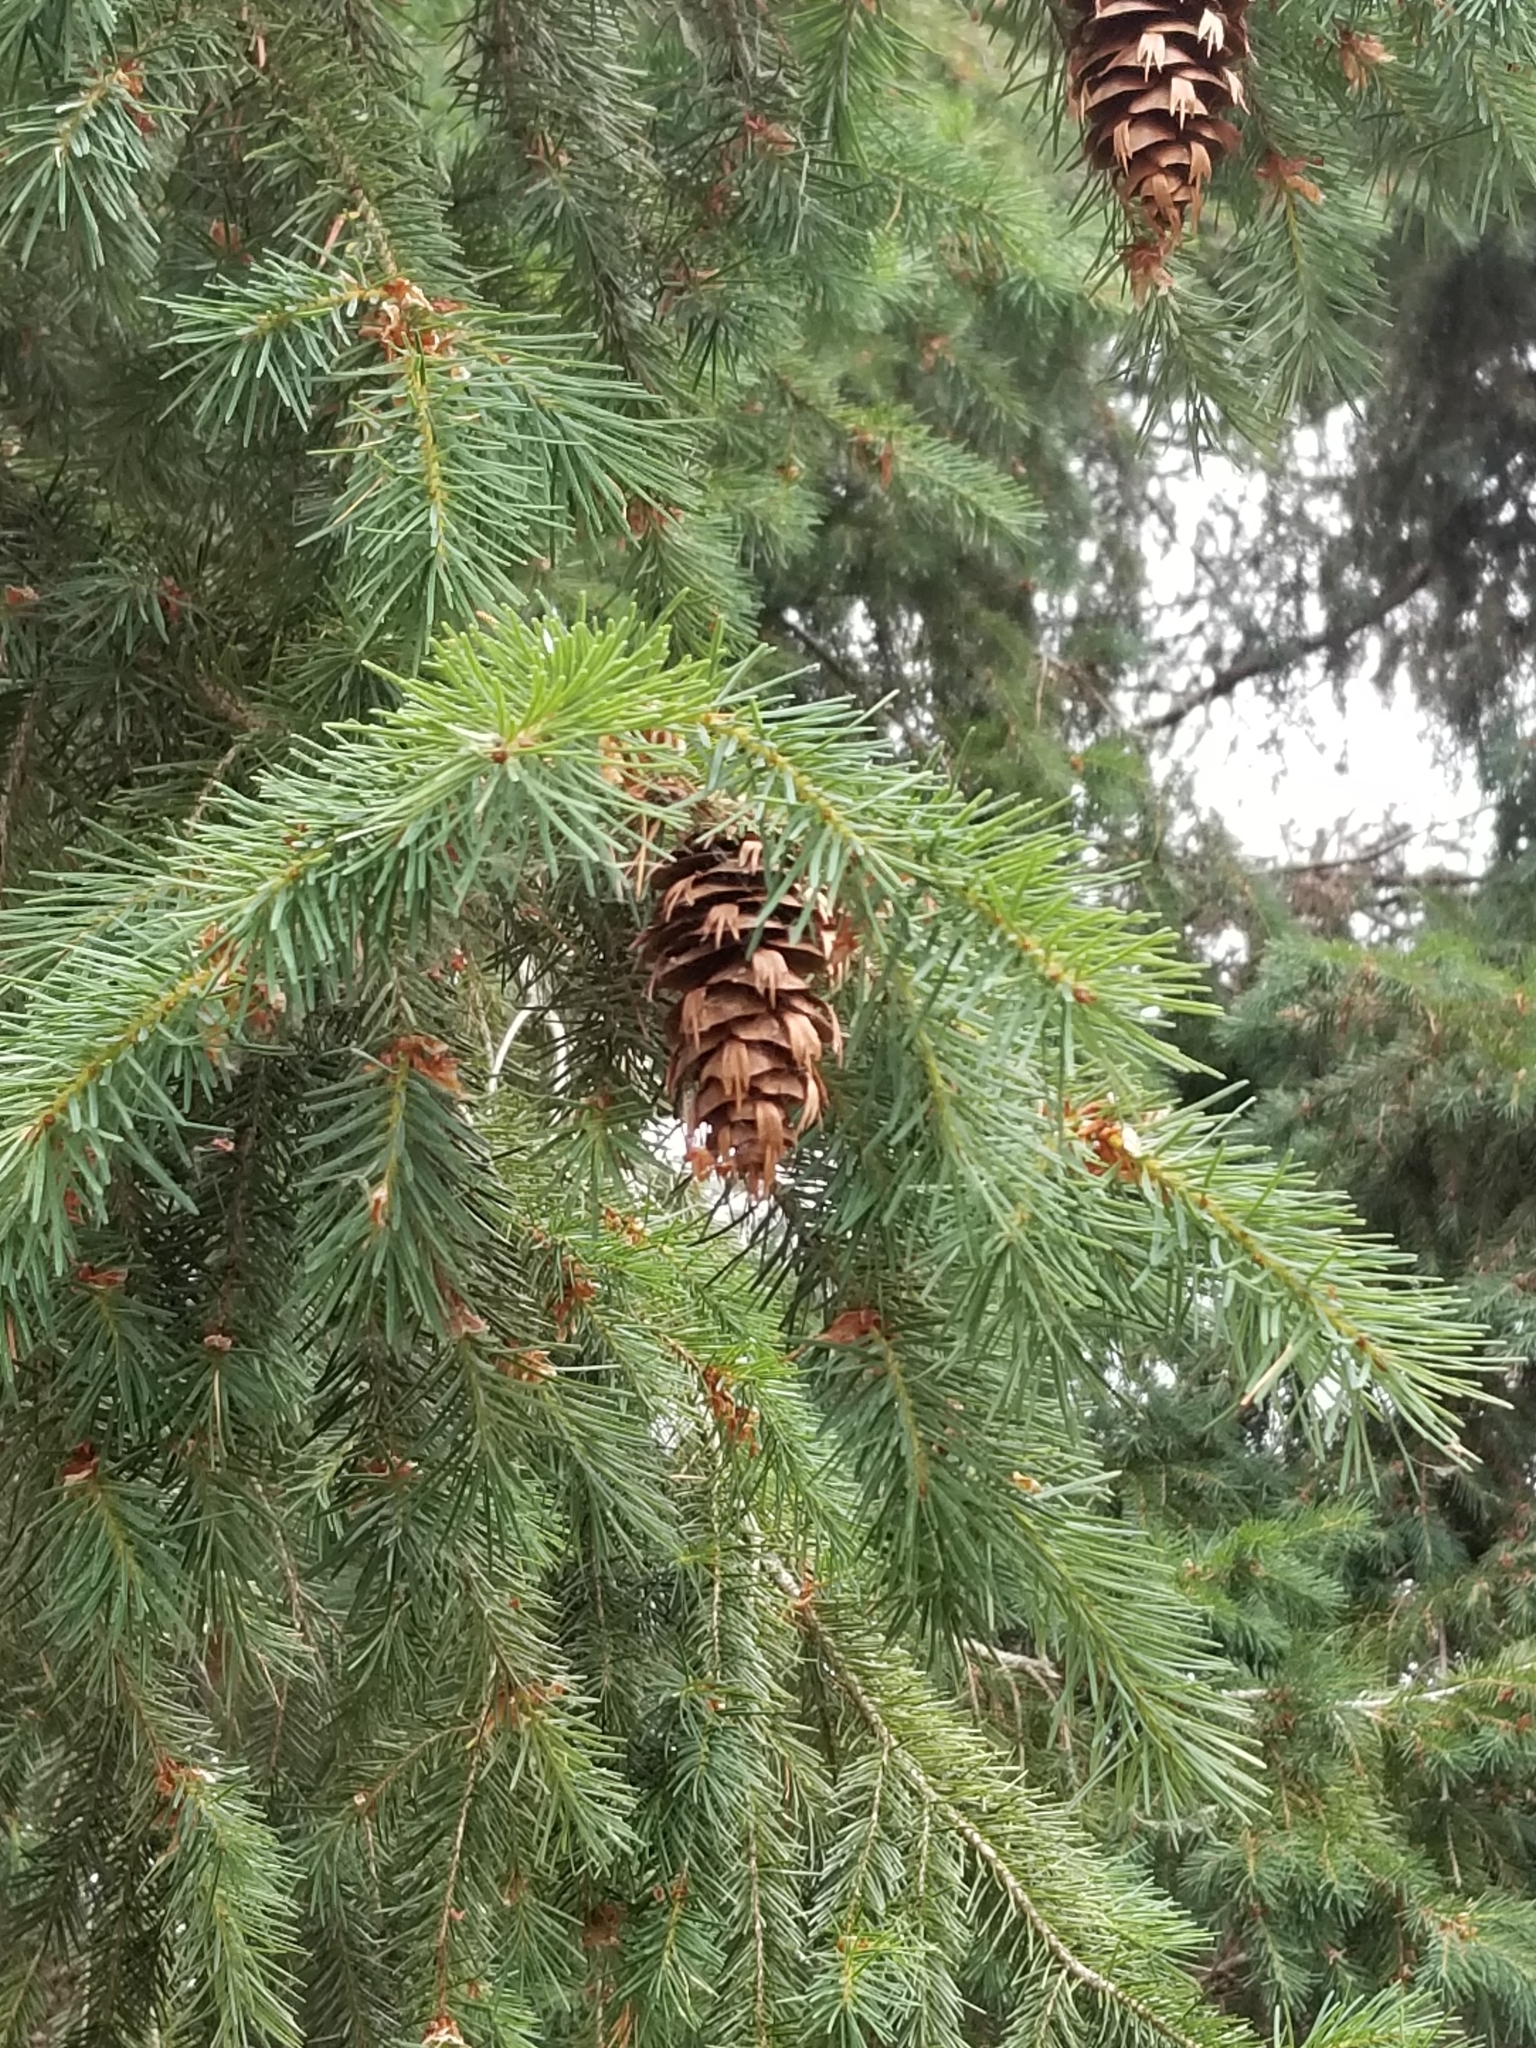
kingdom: Plantae
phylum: Tracheophyta
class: Pinopsida
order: Pinales
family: Pinaceae
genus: Pseudotsuga
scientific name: Pseudotsuga menziesii
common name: Douglas fir
